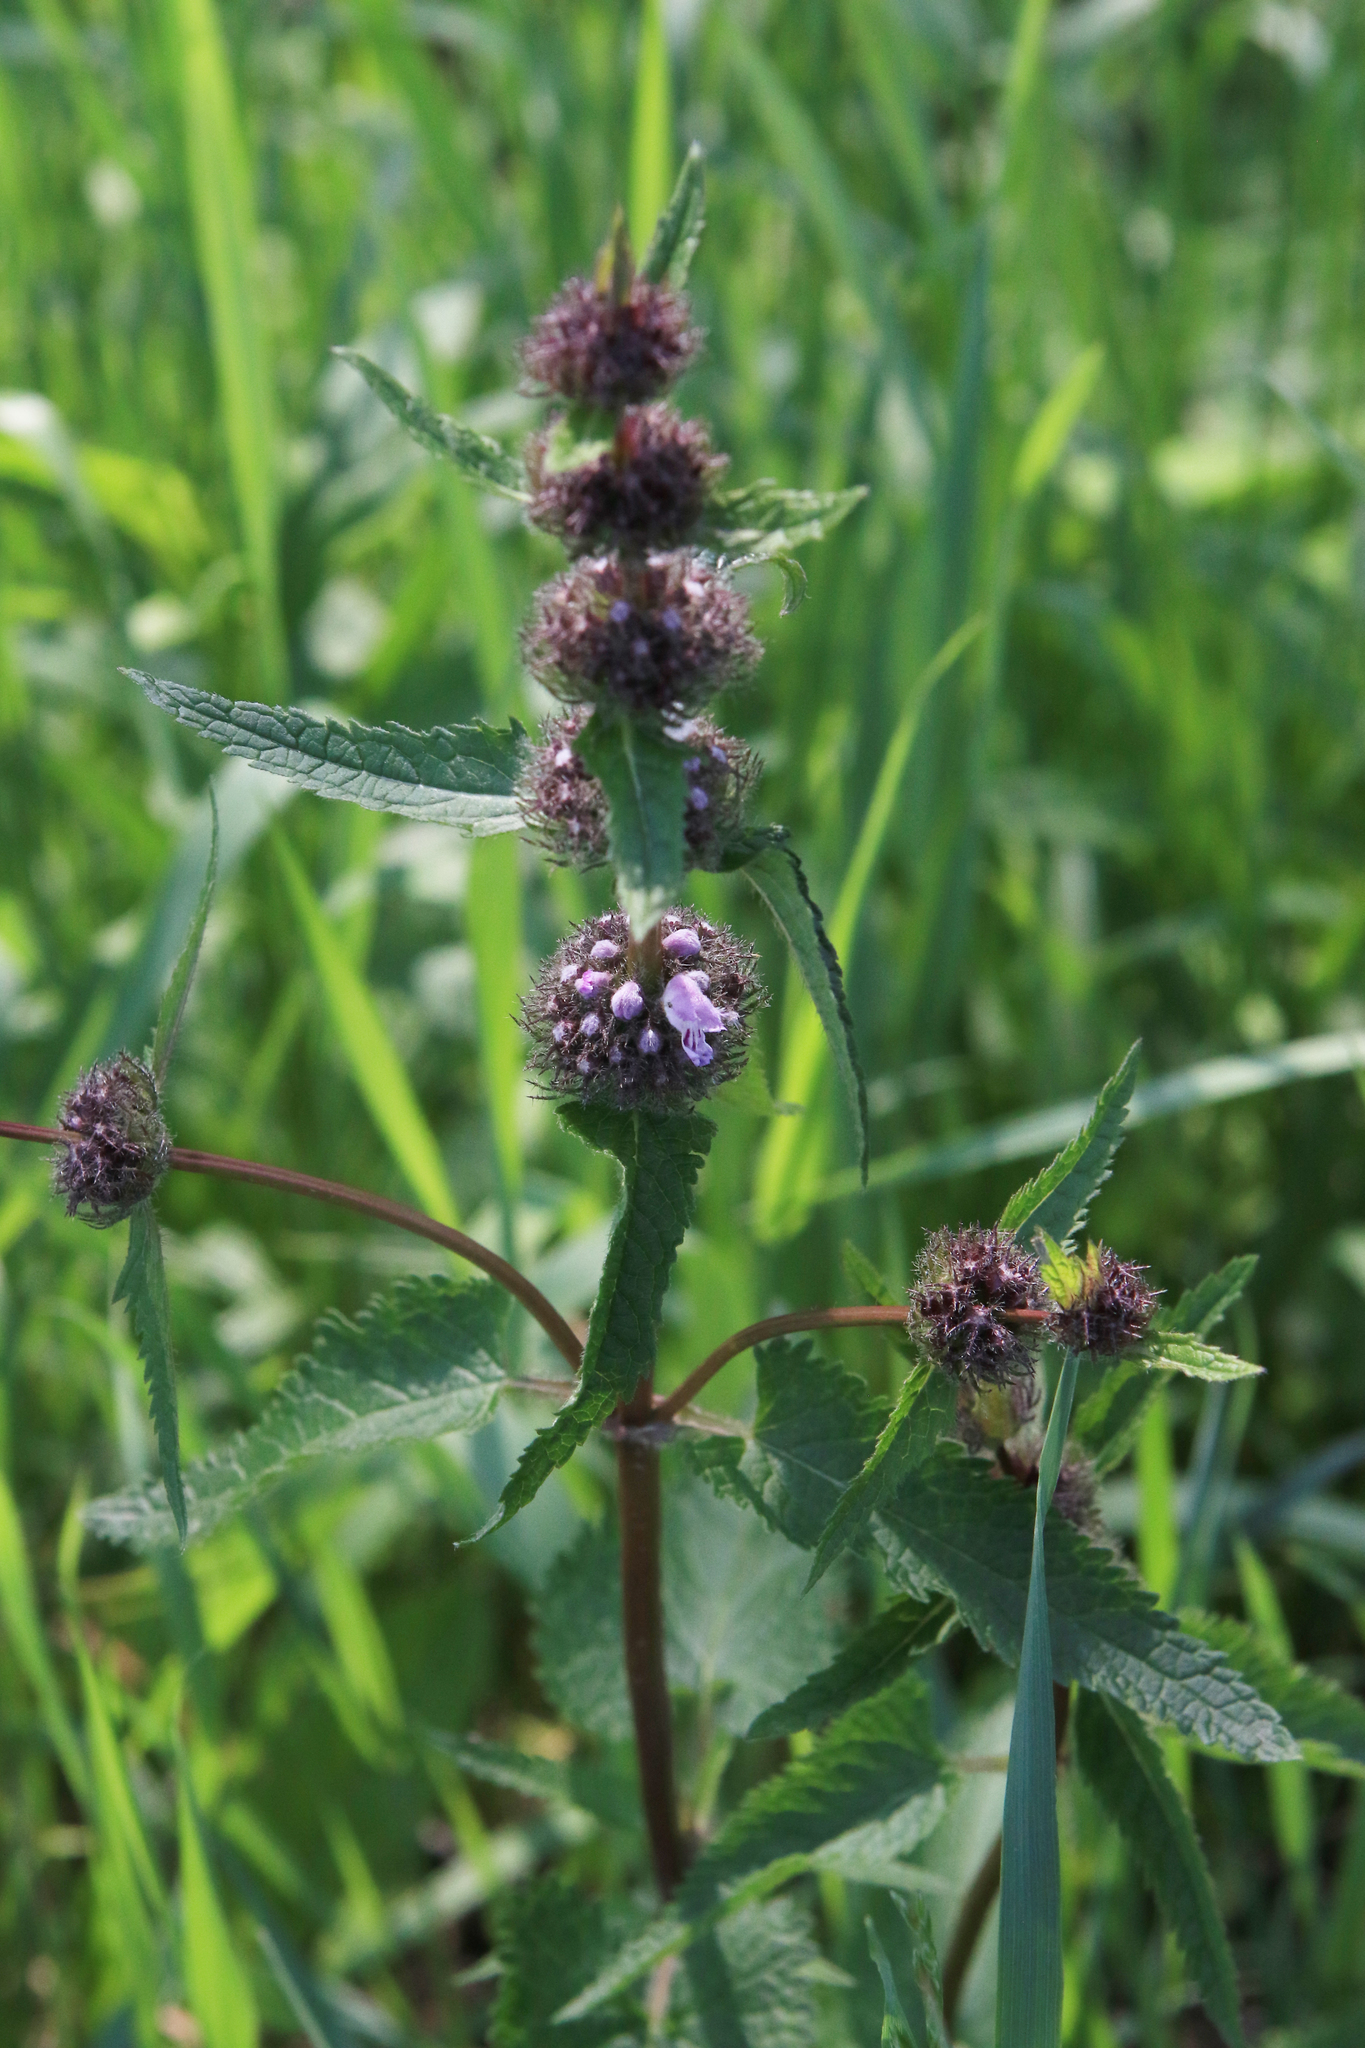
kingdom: Plantae
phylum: Tracheophyta
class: Magnoliopsida
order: Lamiales
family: Lamiaceae
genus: Phlomoides
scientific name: Phlomoides tuberosa
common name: Tuberous jerusalem sage
